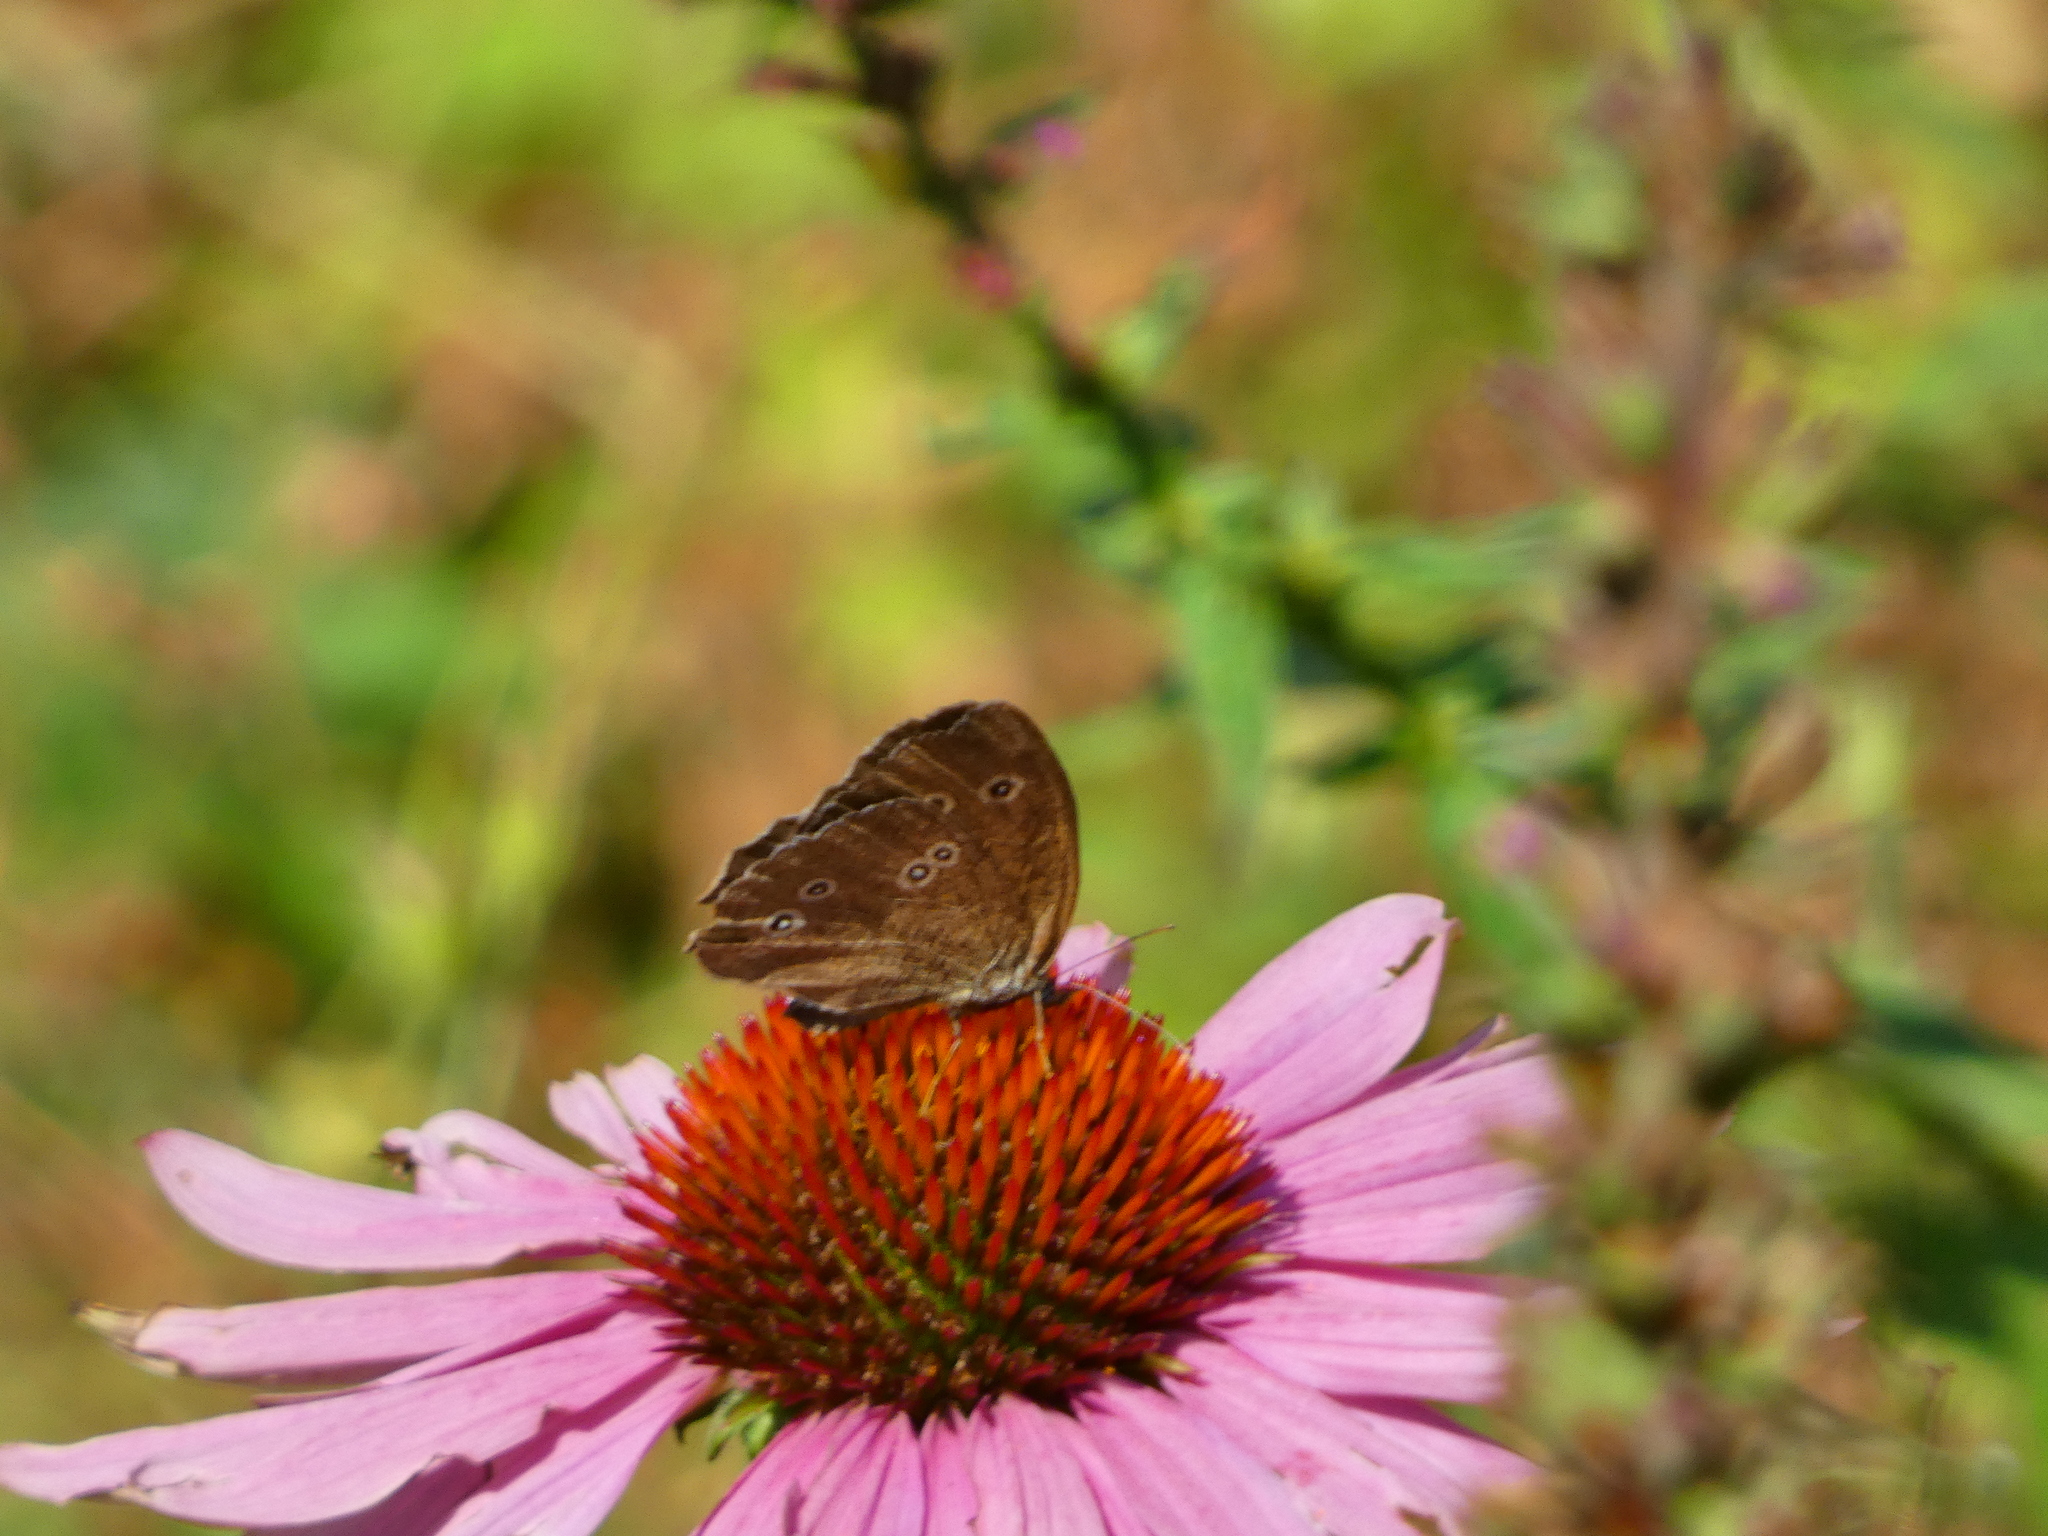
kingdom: Animalia
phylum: Arthropoda
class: Insecta
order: Lepidoptera
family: Nymphalidae
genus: Aphantopus
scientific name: Aphantopus hyperantus
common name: Ringlet
